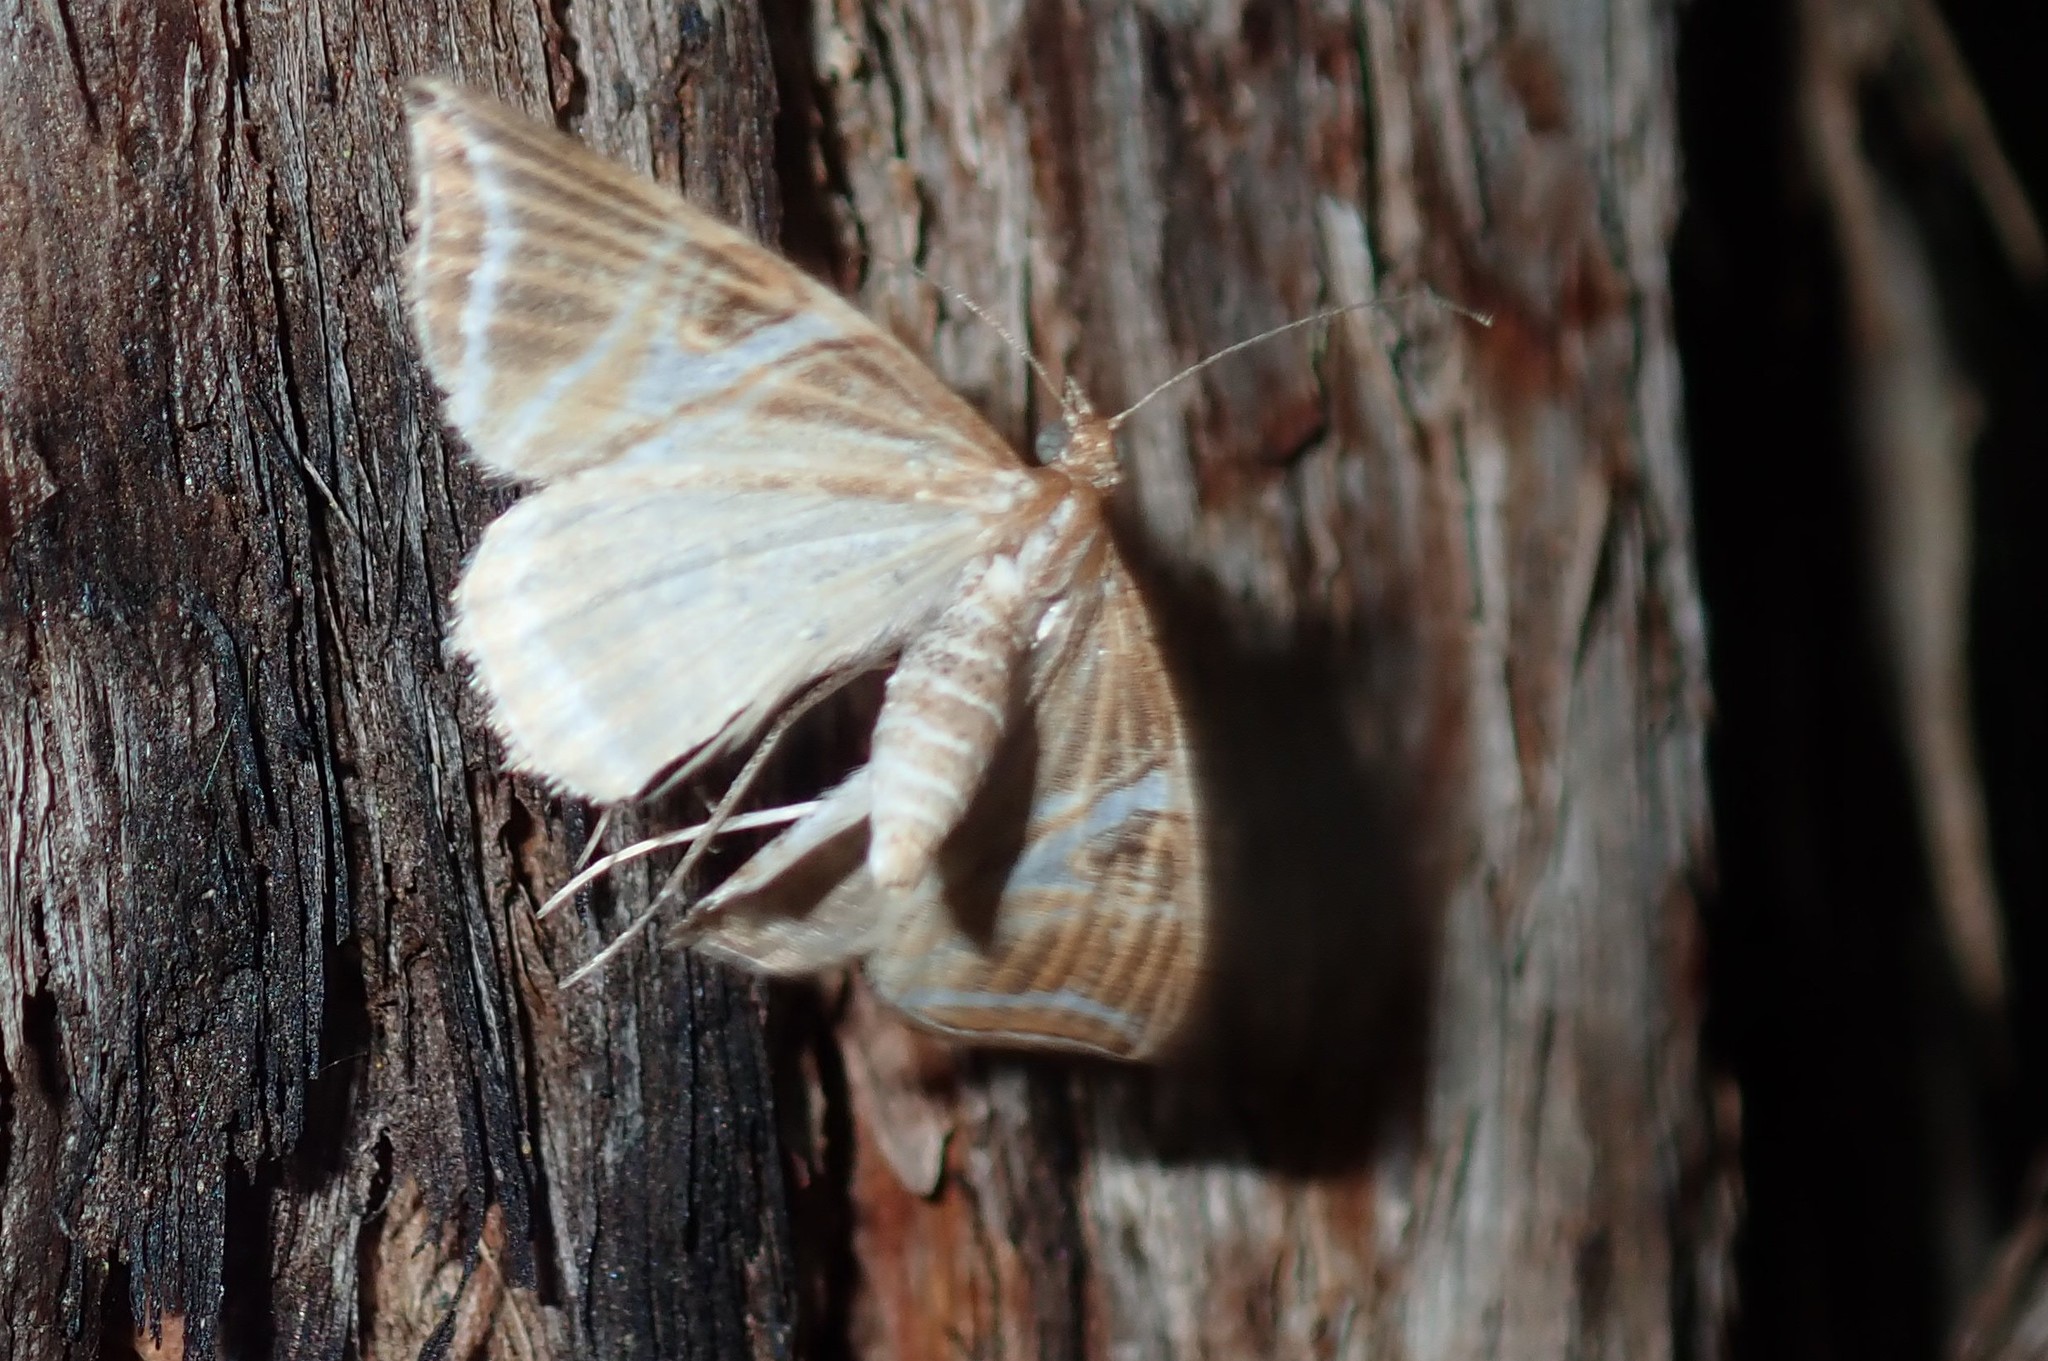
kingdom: Animalia
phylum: Arthropoda
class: Insecta
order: Lepidoptera
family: Geometridae
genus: Phrataria
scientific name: Phrataria transcissata
